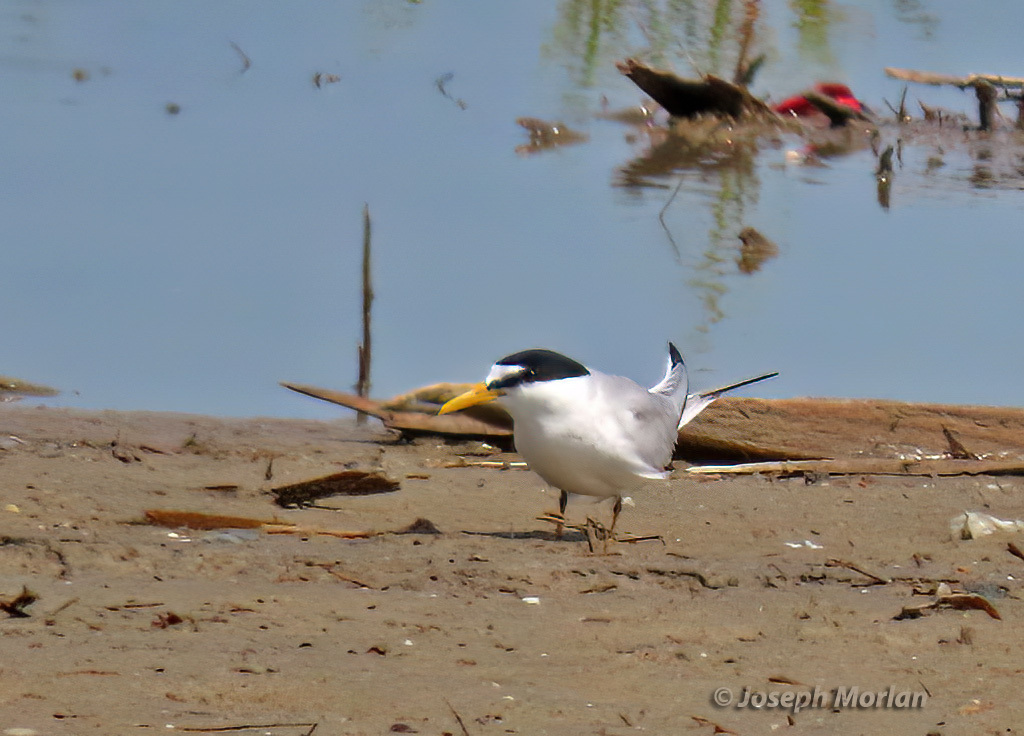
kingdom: Animalia
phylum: Chordata
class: Aves
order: Charadriiformes
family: Laridae
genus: Sternula
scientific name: Sternula antillarum
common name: Least tern
